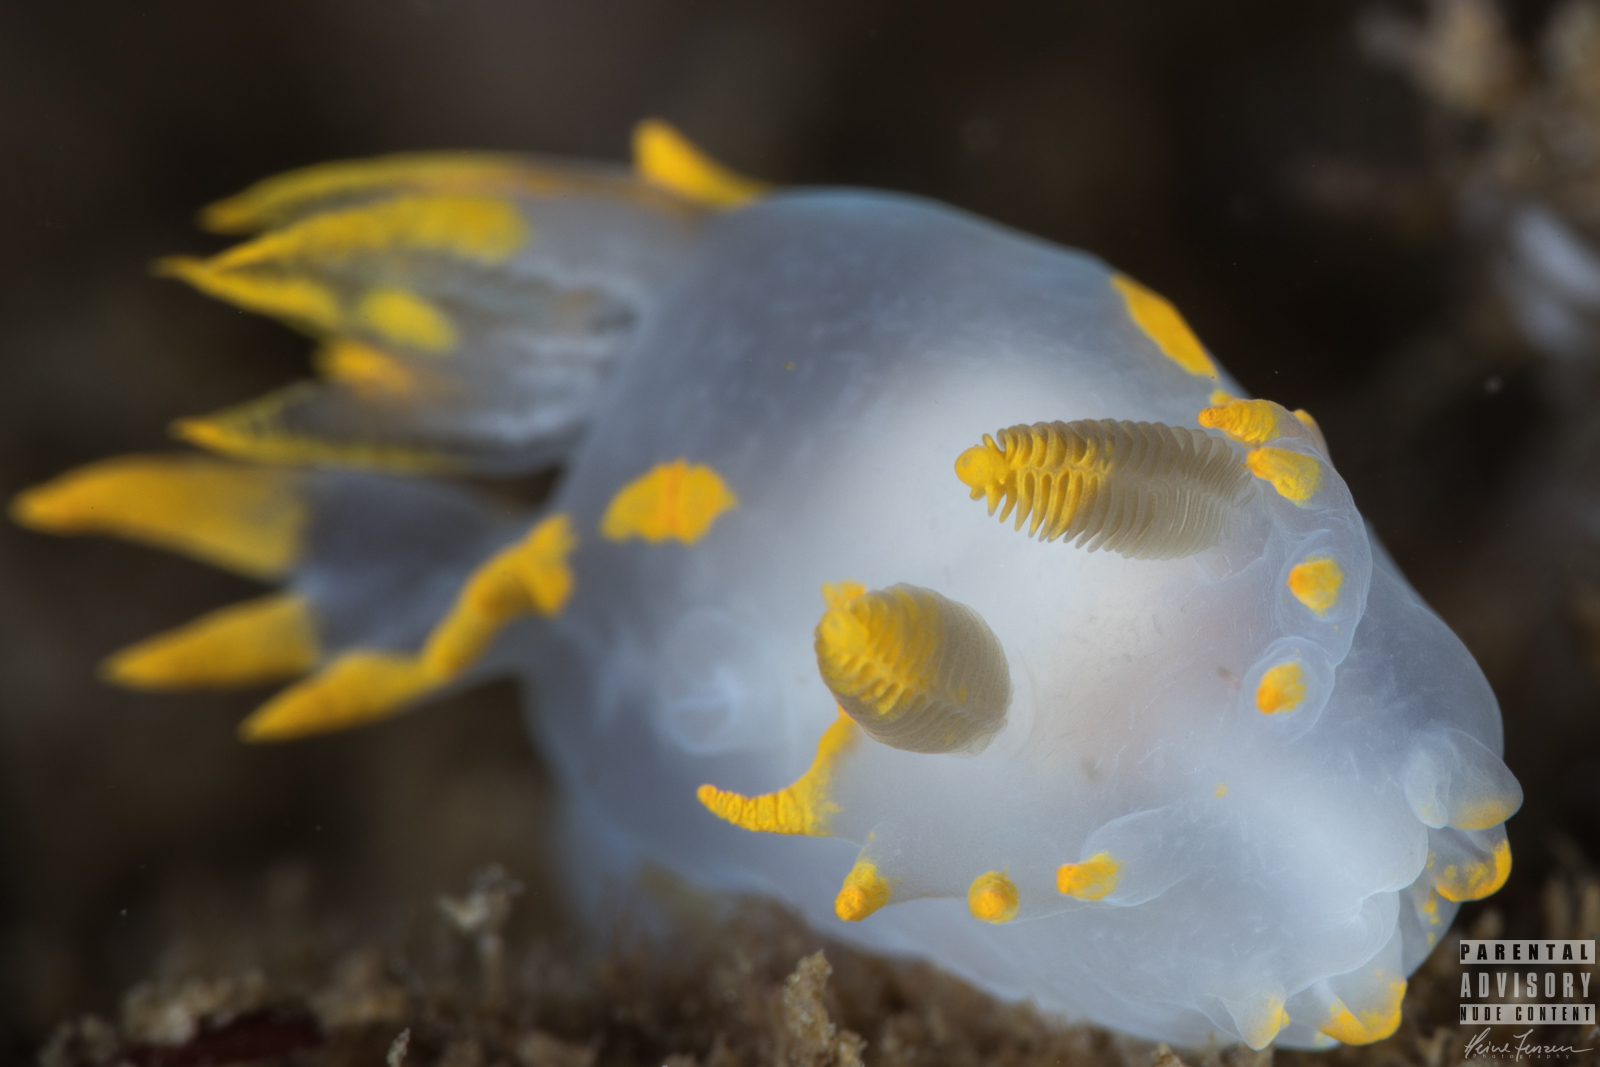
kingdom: Animalia
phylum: Mollusca
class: Gastropoda
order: Nudibranchia
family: Polyceridae
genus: Polycera
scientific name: Polycera faeroensis
